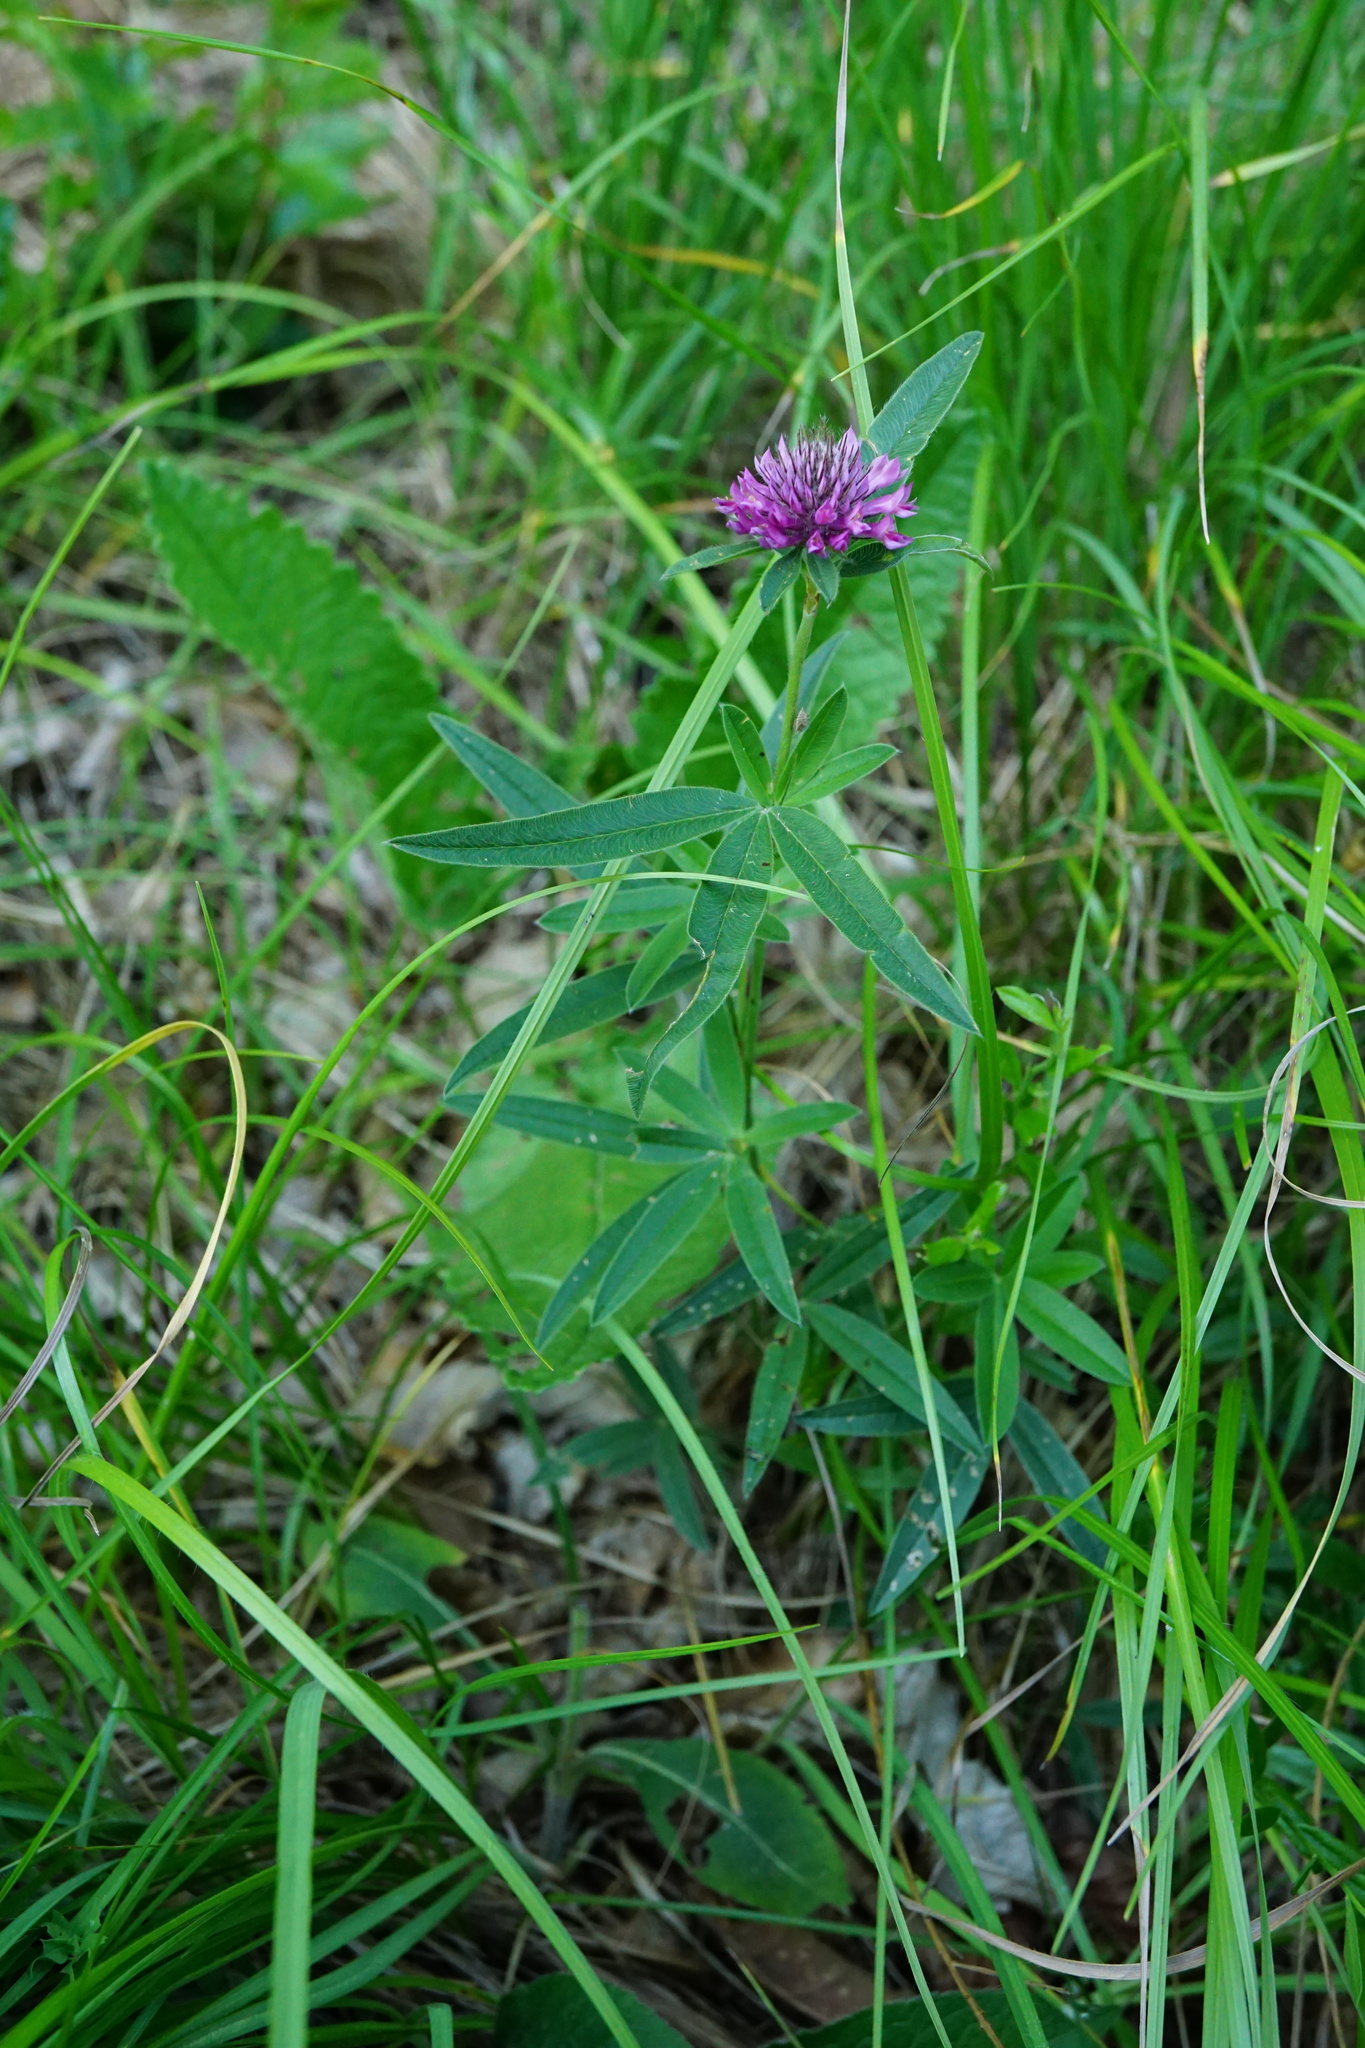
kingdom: Plantae
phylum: Tracheophyta
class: Magnoliopsida
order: Fabales
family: Fabaceae
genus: Trifolium
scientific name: Trifolium alpestre
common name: Owl-head clover
